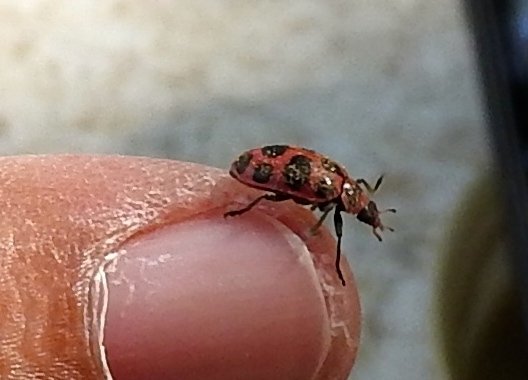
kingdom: Animalia
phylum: Arthropoda
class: Insecta
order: Coleoptera
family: Coccinellidae
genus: Coleomegilla
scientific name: Coleomegilla maculata
